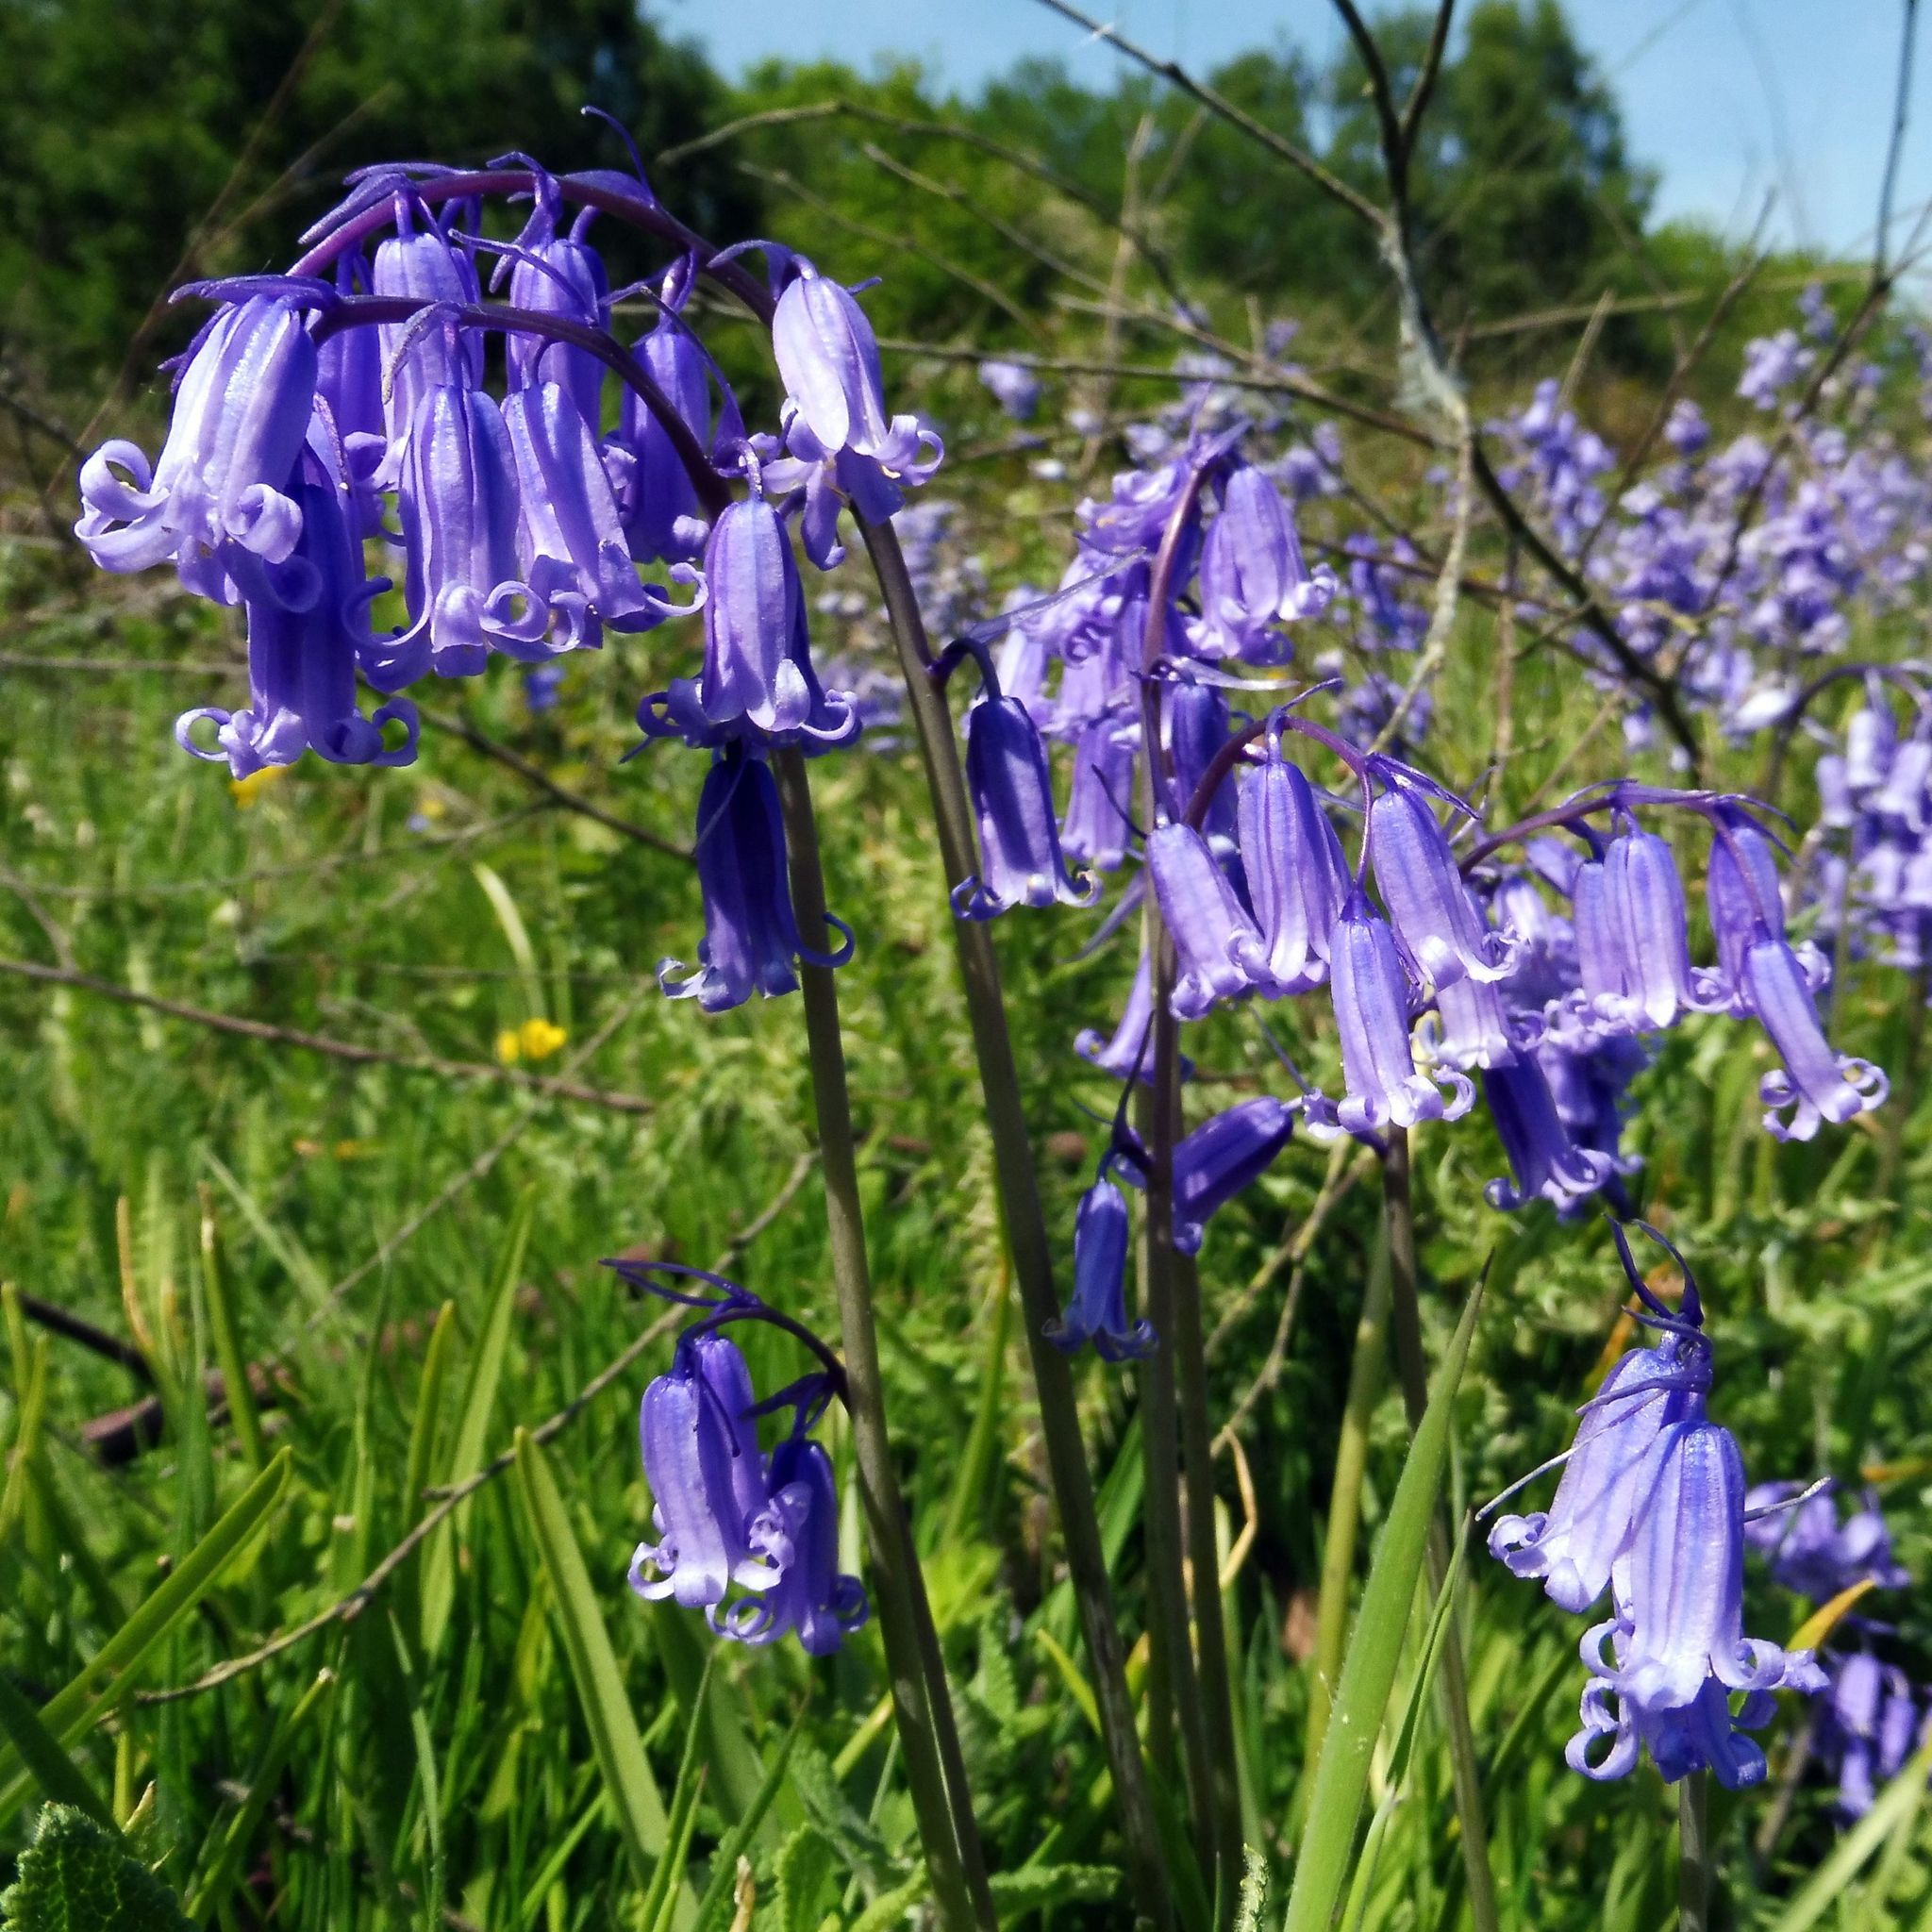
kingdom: Plantae
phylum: Tracheophyta
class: Liliopsida
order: Asparagales
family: Asparagaceae
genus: Hyacinthoides
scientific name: Hyacinthoides non-scripta
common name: Bluebell
